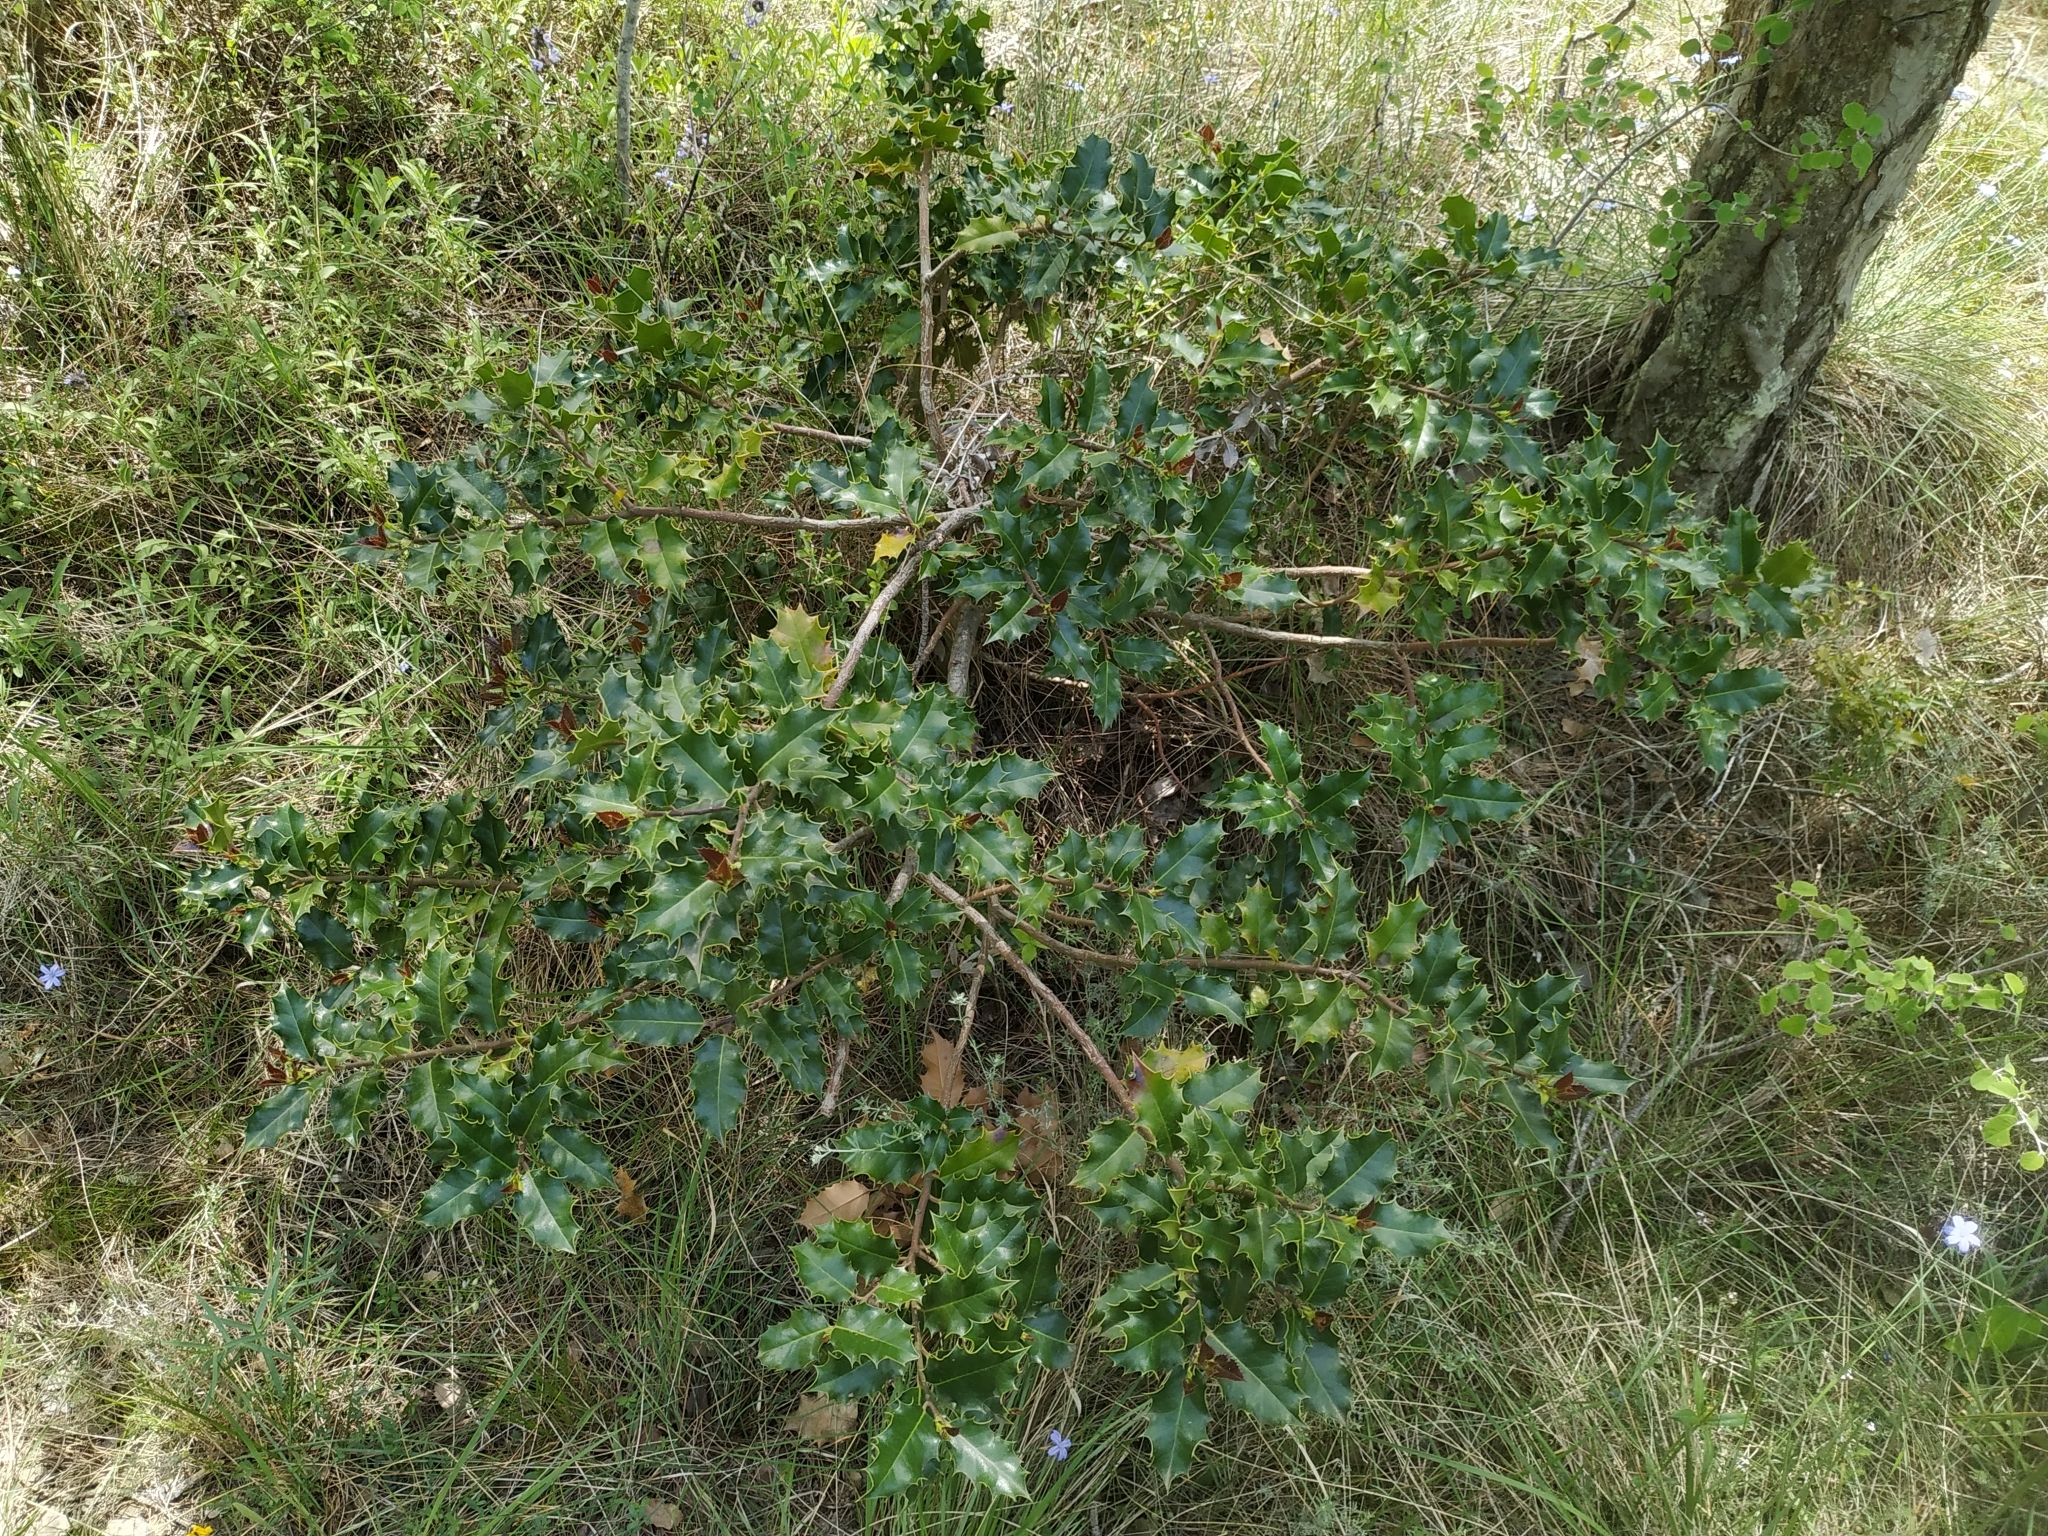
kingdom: Plantae
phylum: Tracheophyta
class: Magnoliopsida
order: Aquifoliales
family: Aquifoliaceae
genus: Ilex
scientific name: Ilex aquifolium
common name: English holly
